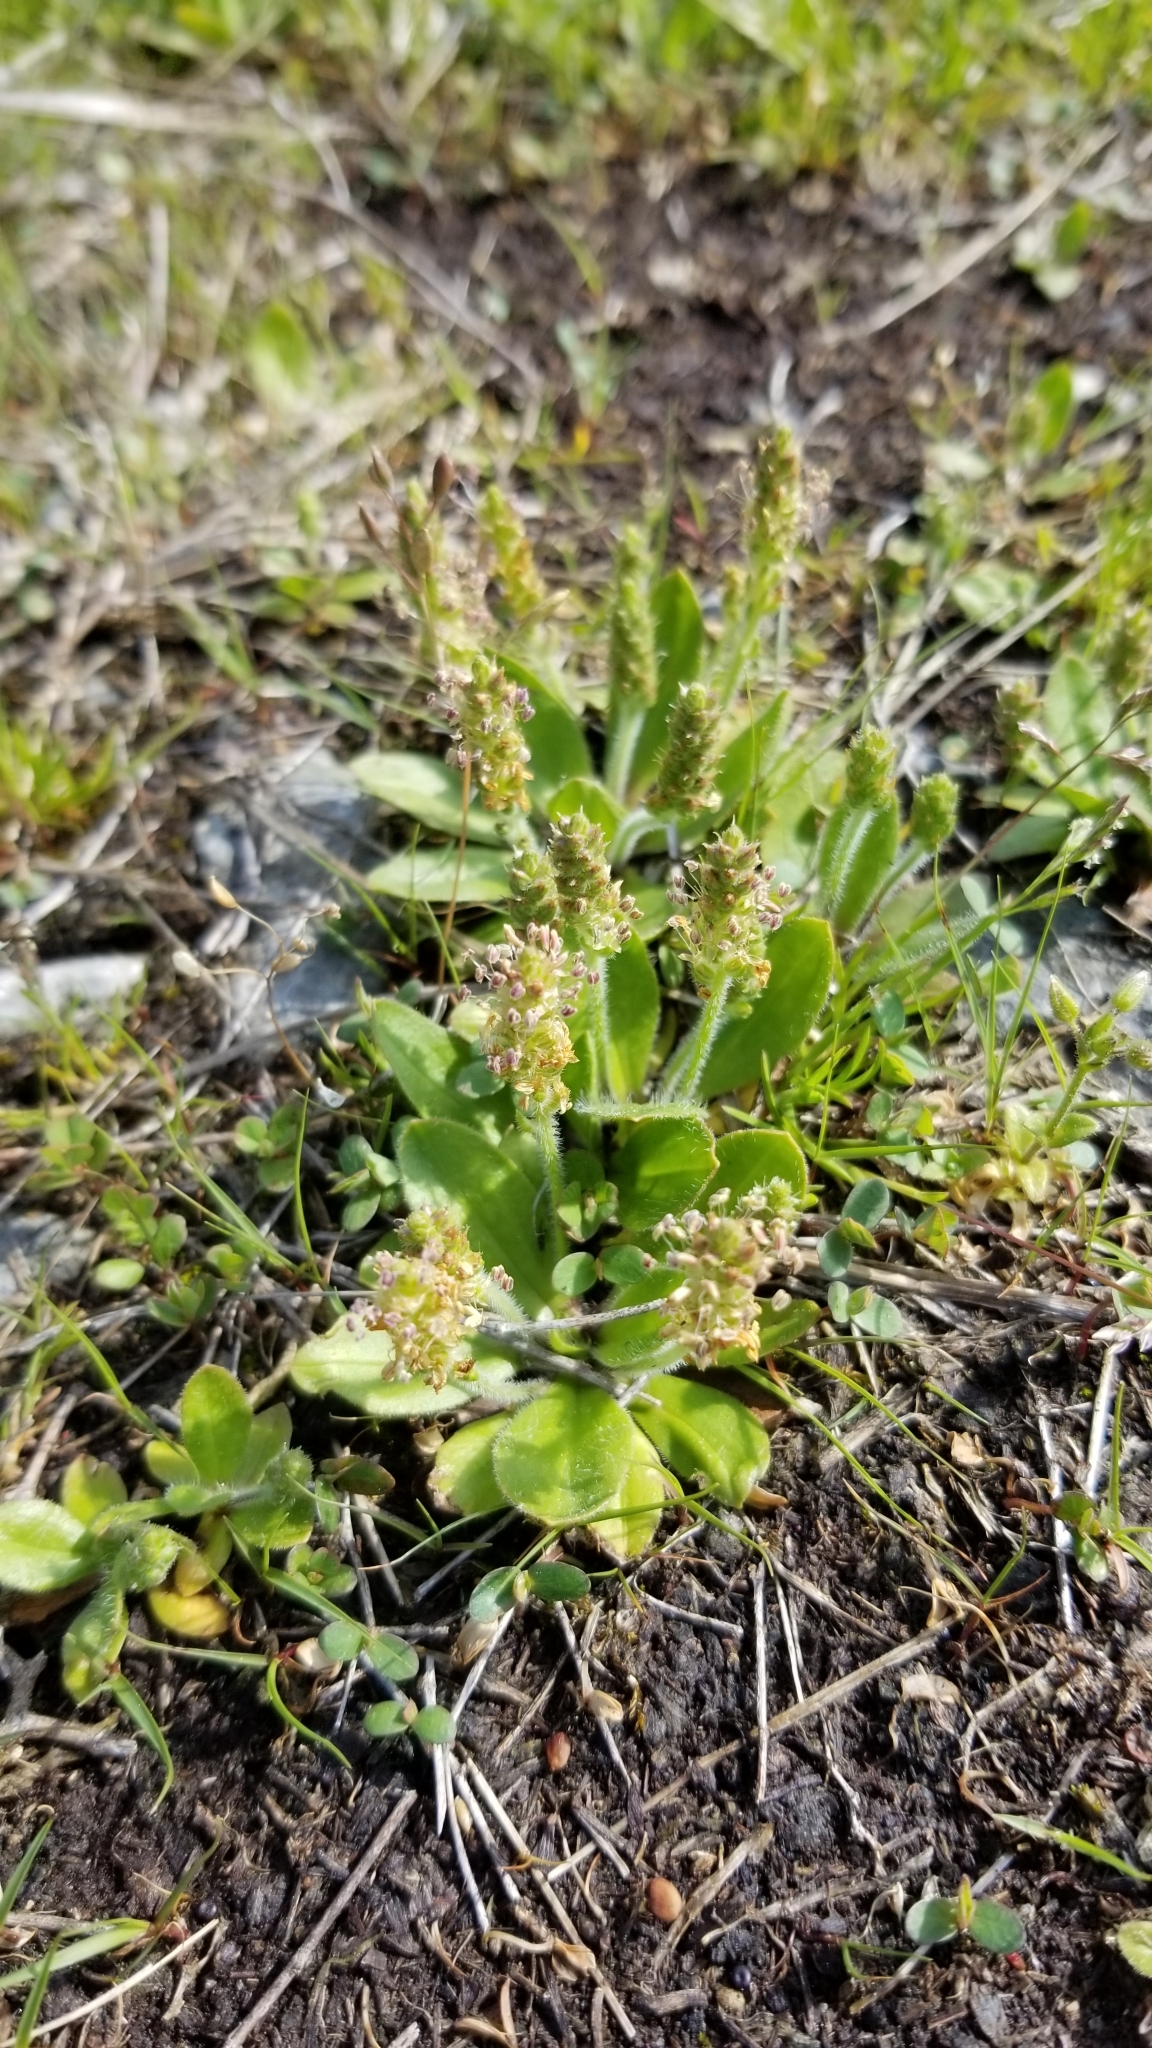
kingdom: Plantae
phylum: Tracheophyta
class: Magnoliopsida
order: Lamiales
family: Plantaginaceae
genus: Plantago
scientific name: Plantago virginica
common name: Hoary plantain
